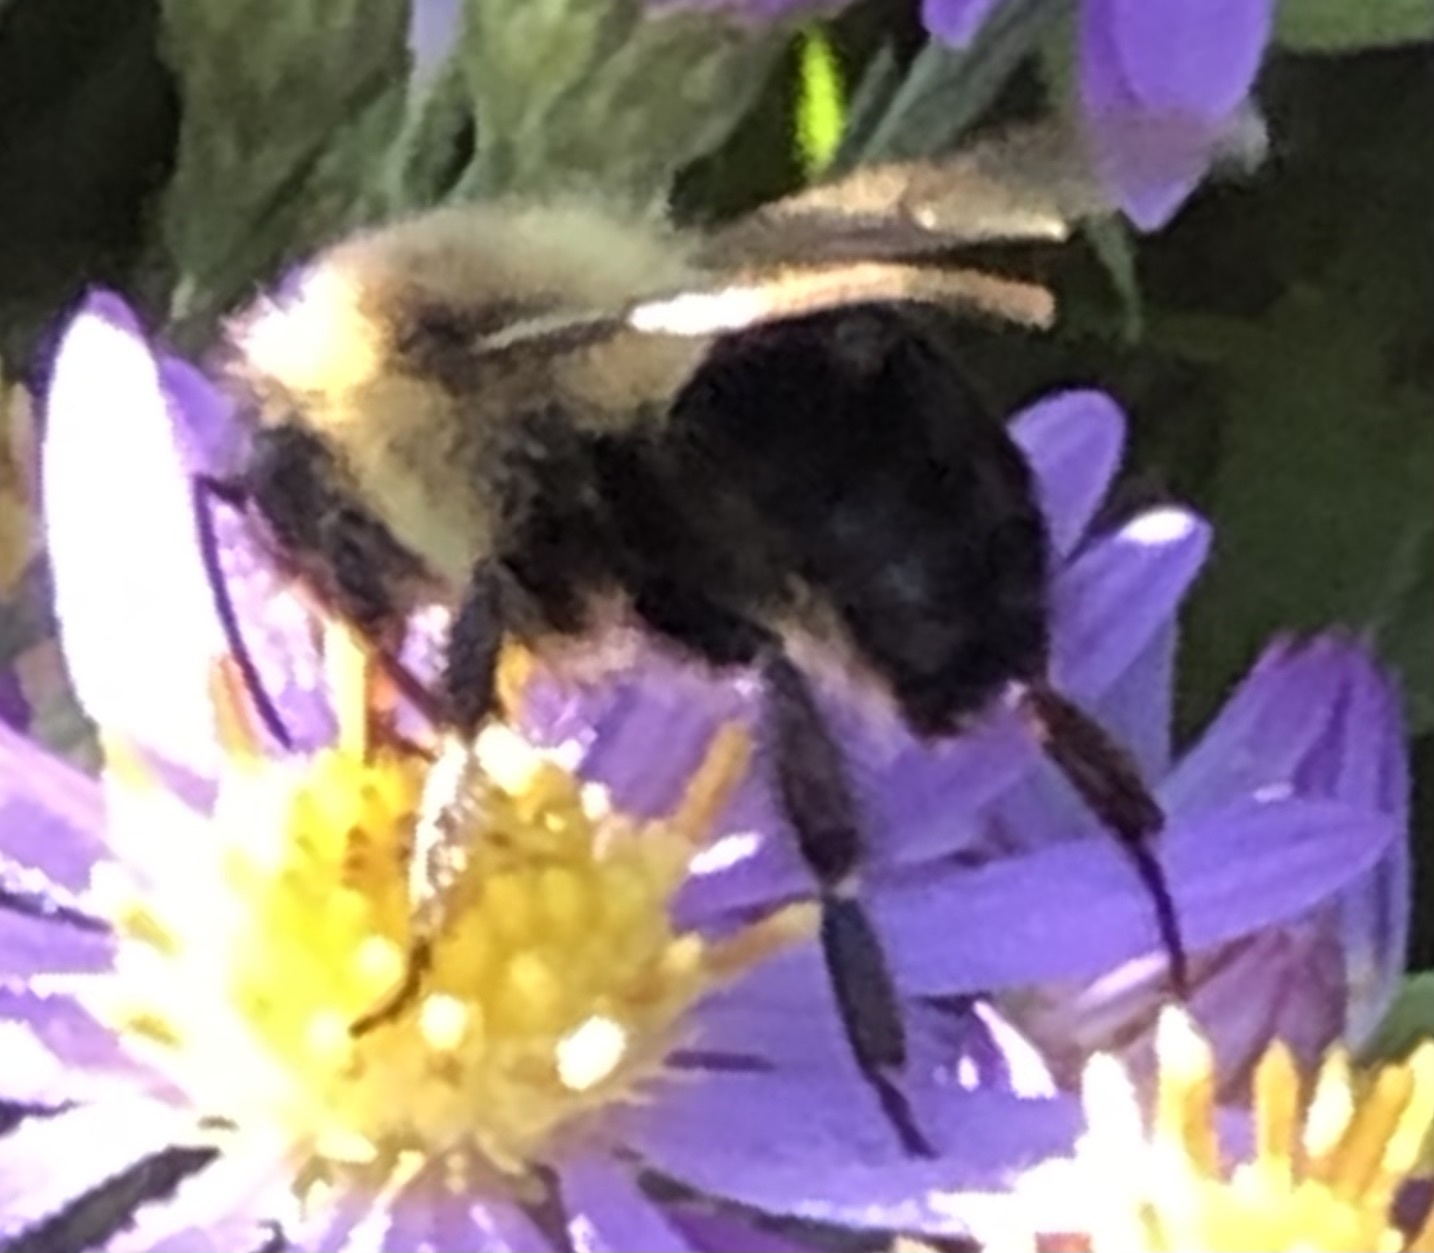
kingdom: Animalia
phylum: Arthropoda
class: Insecta
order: Hymenoptera
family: Apidae
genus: Bombus
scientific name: Bombus impatiens
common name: Common eastern bumble bee
